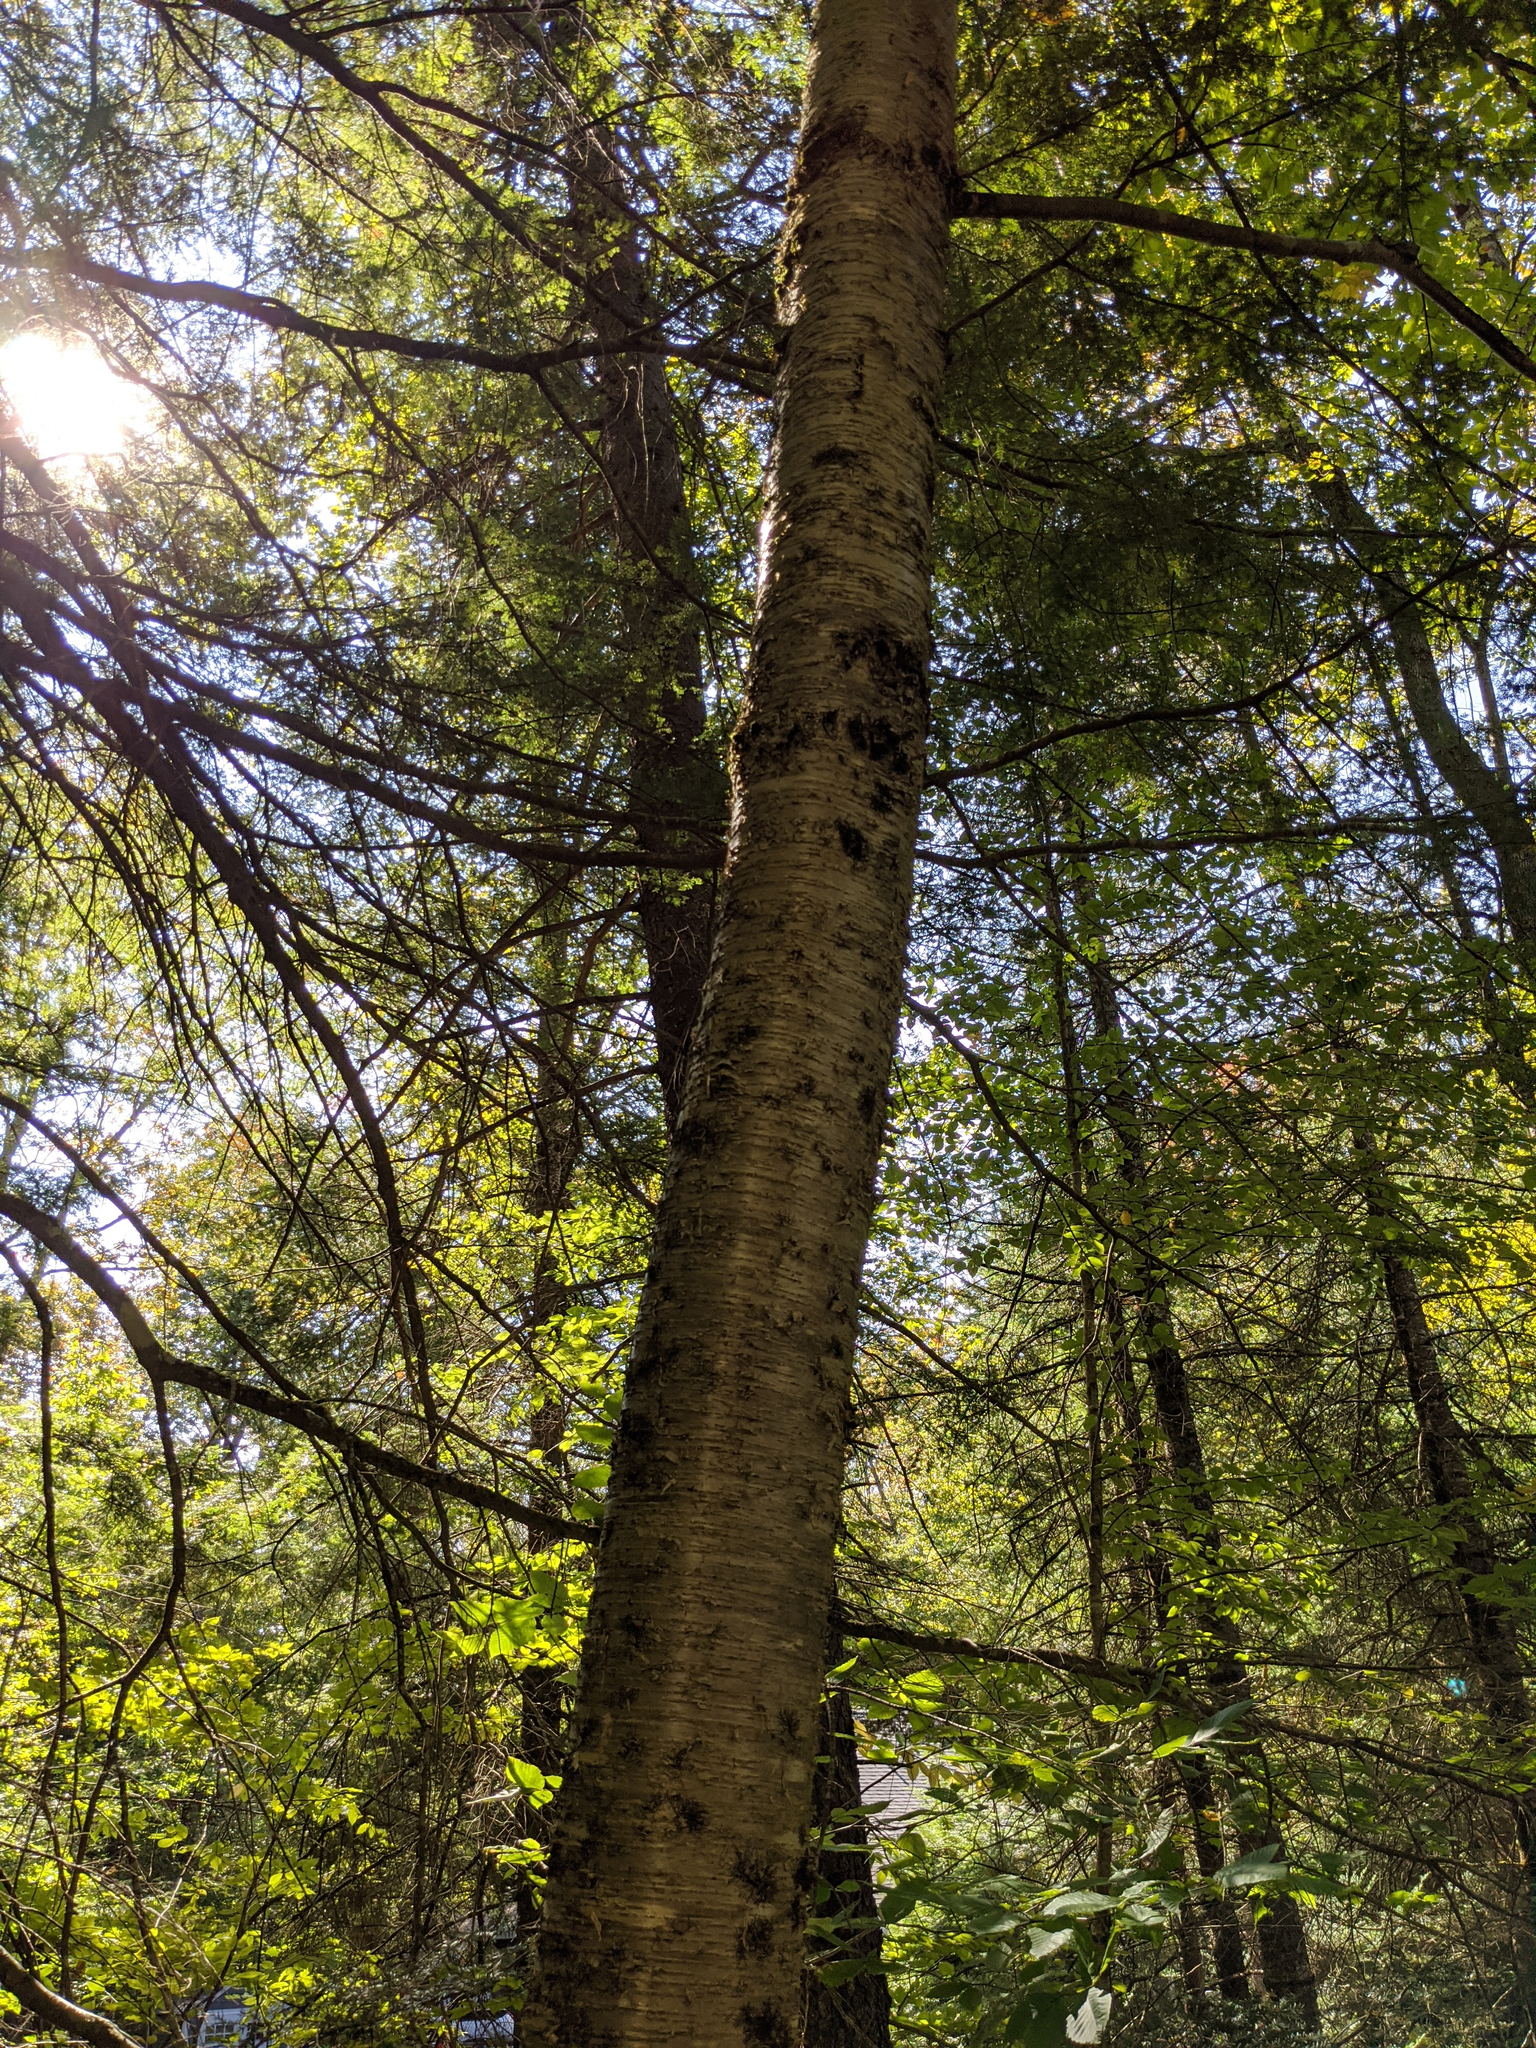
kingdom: Plantae
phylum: Tracheophyta
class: Magnoliopsida
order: Fagales
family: Betulaceae
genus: Betula
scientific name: Betula alleghaniensis
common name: Yellow birch
